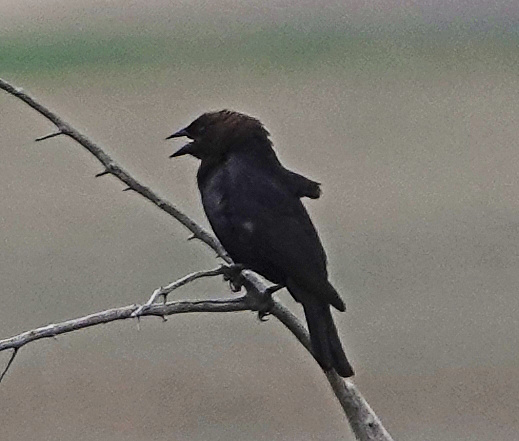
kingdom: Animalia
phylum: Chordata
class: Aves
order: Passeriformes
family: Icteridae
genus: Molothrus
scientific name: Molothrus ater
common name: Brown-headed cowbird
